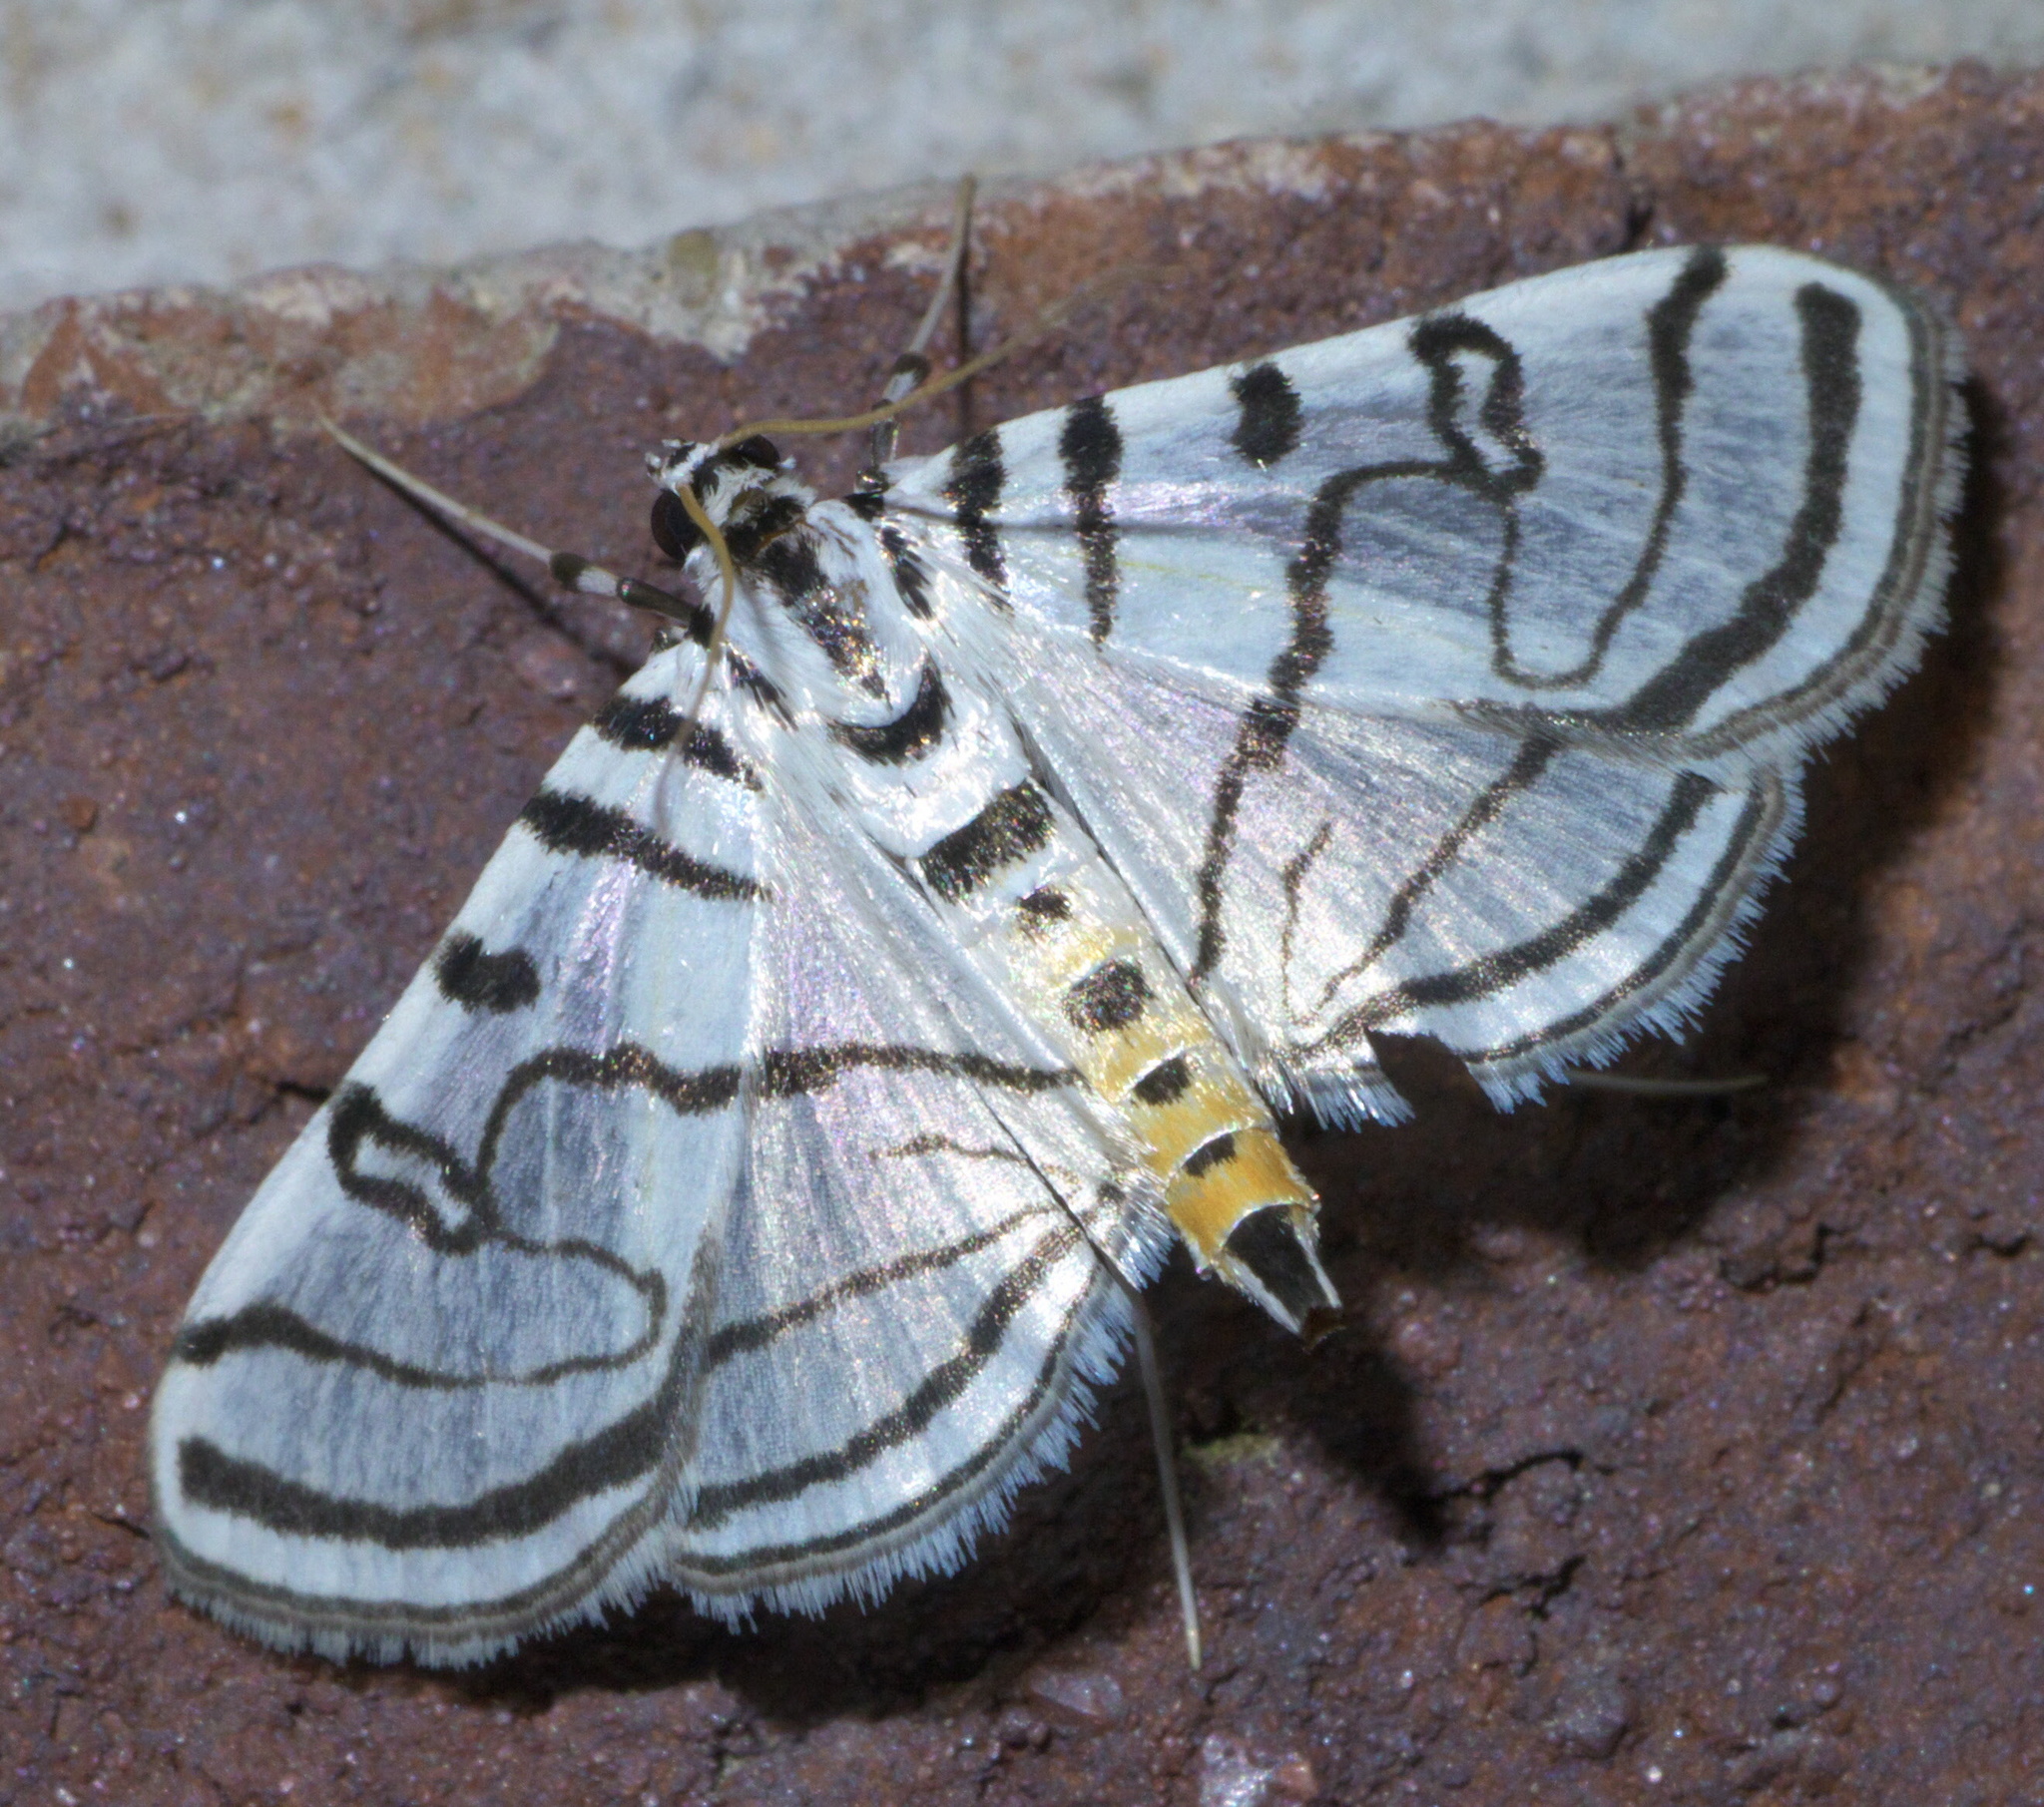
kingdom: Animalia
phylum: Arthropoda
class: Insecta
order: Lepidoptera
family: Crambidae
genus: Conchylodes
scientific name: Conchylodes ovulalis
